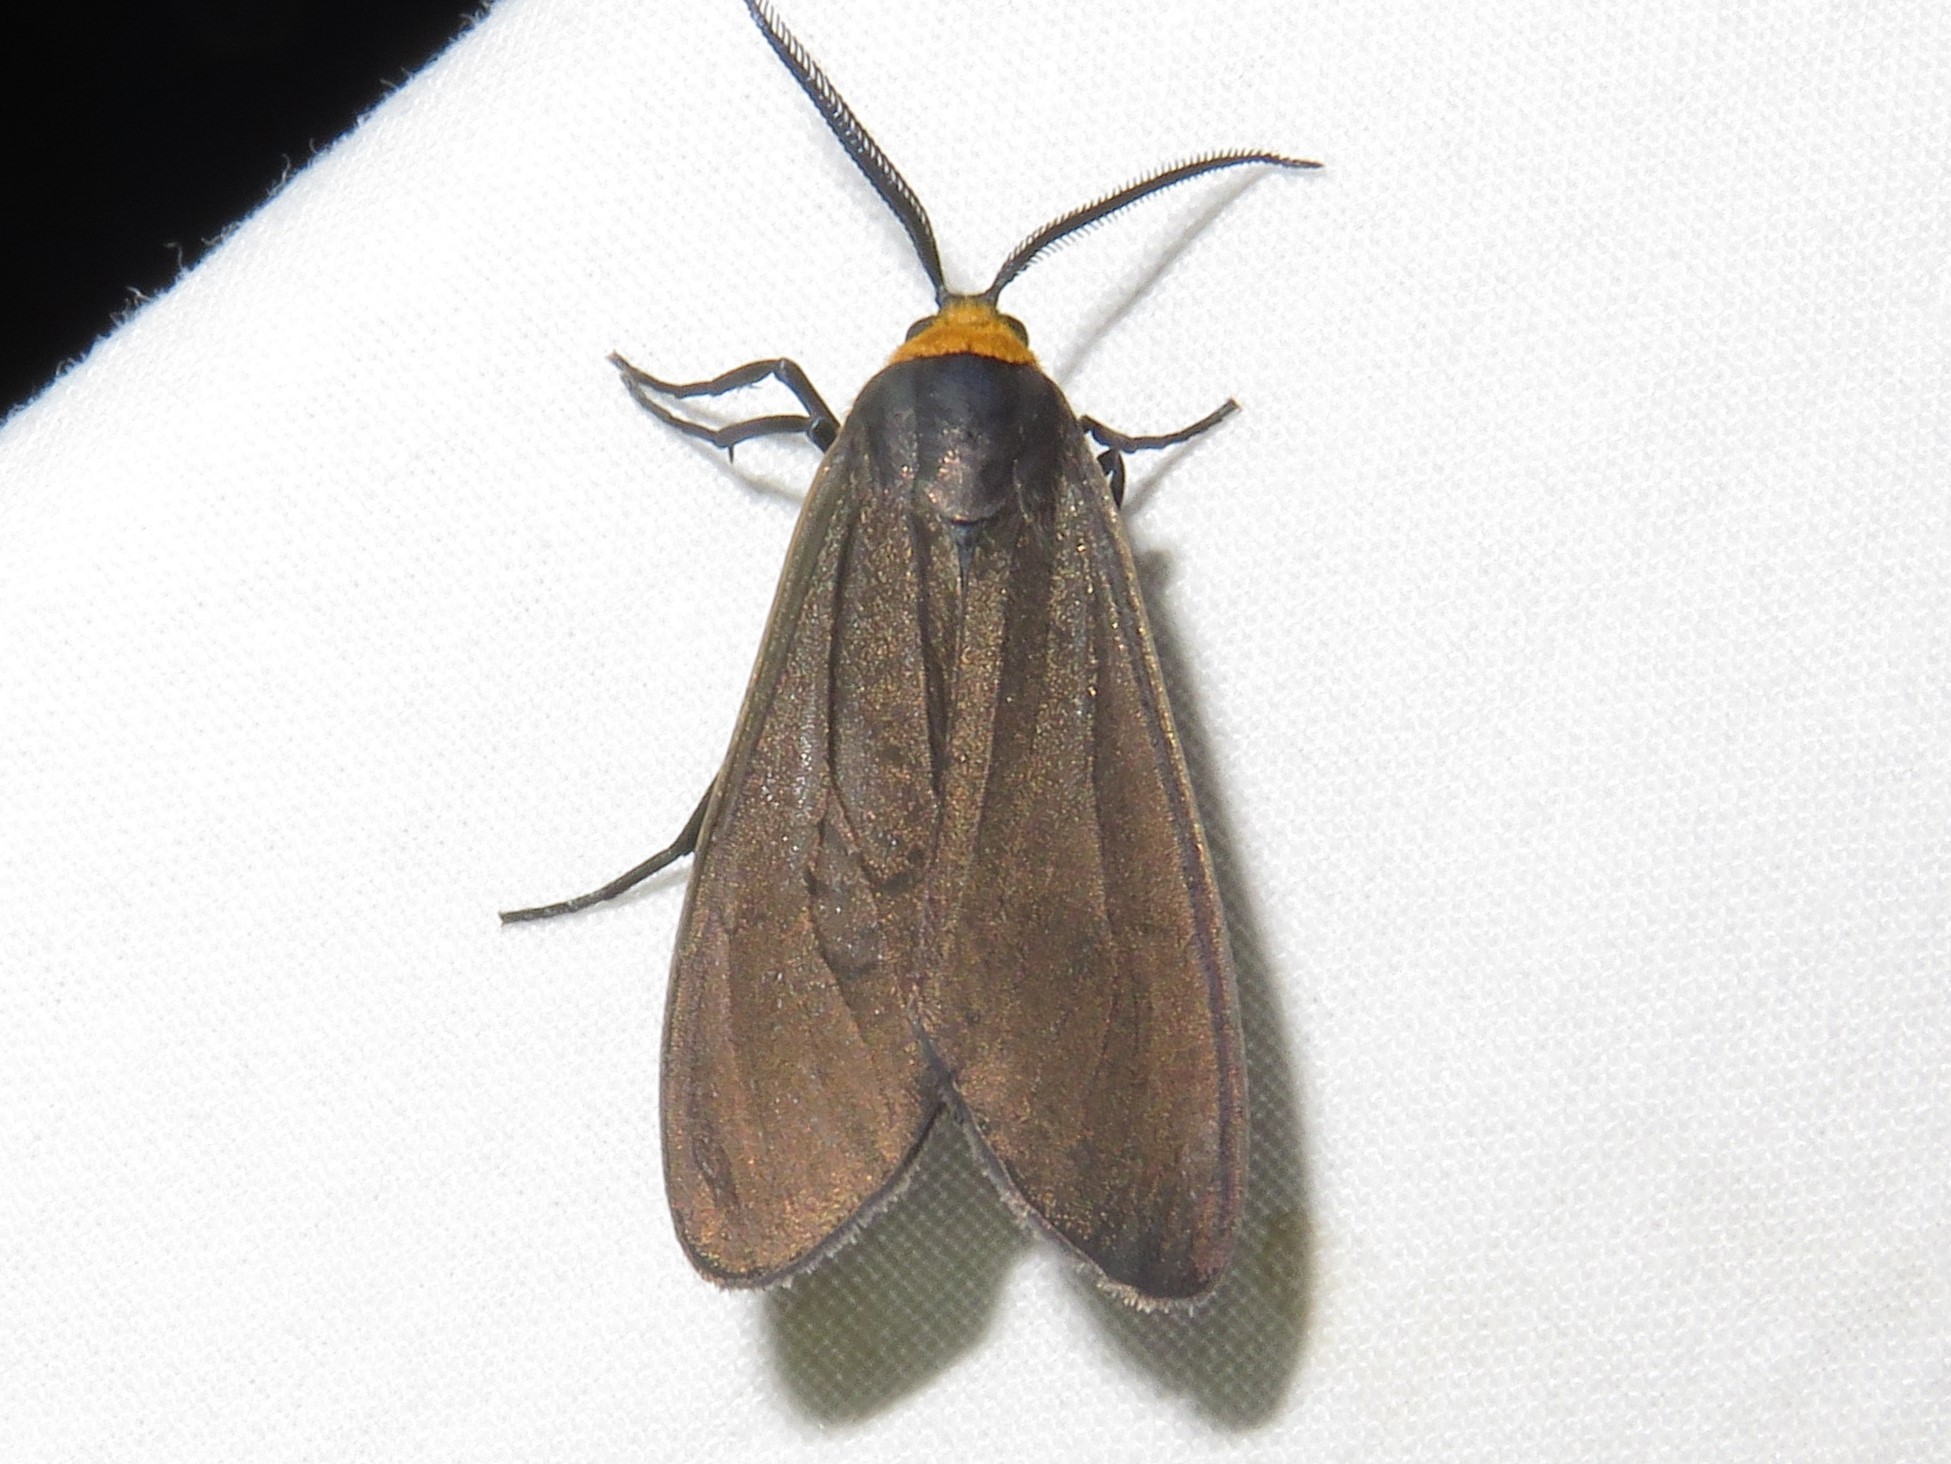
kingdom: Animalia
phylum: Arthropoda
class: Insecta
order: Lepidoptera
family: Erebidae
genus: Cisseps
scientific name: Cisseps fulvicollis
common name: Yellow-collared scape moth
